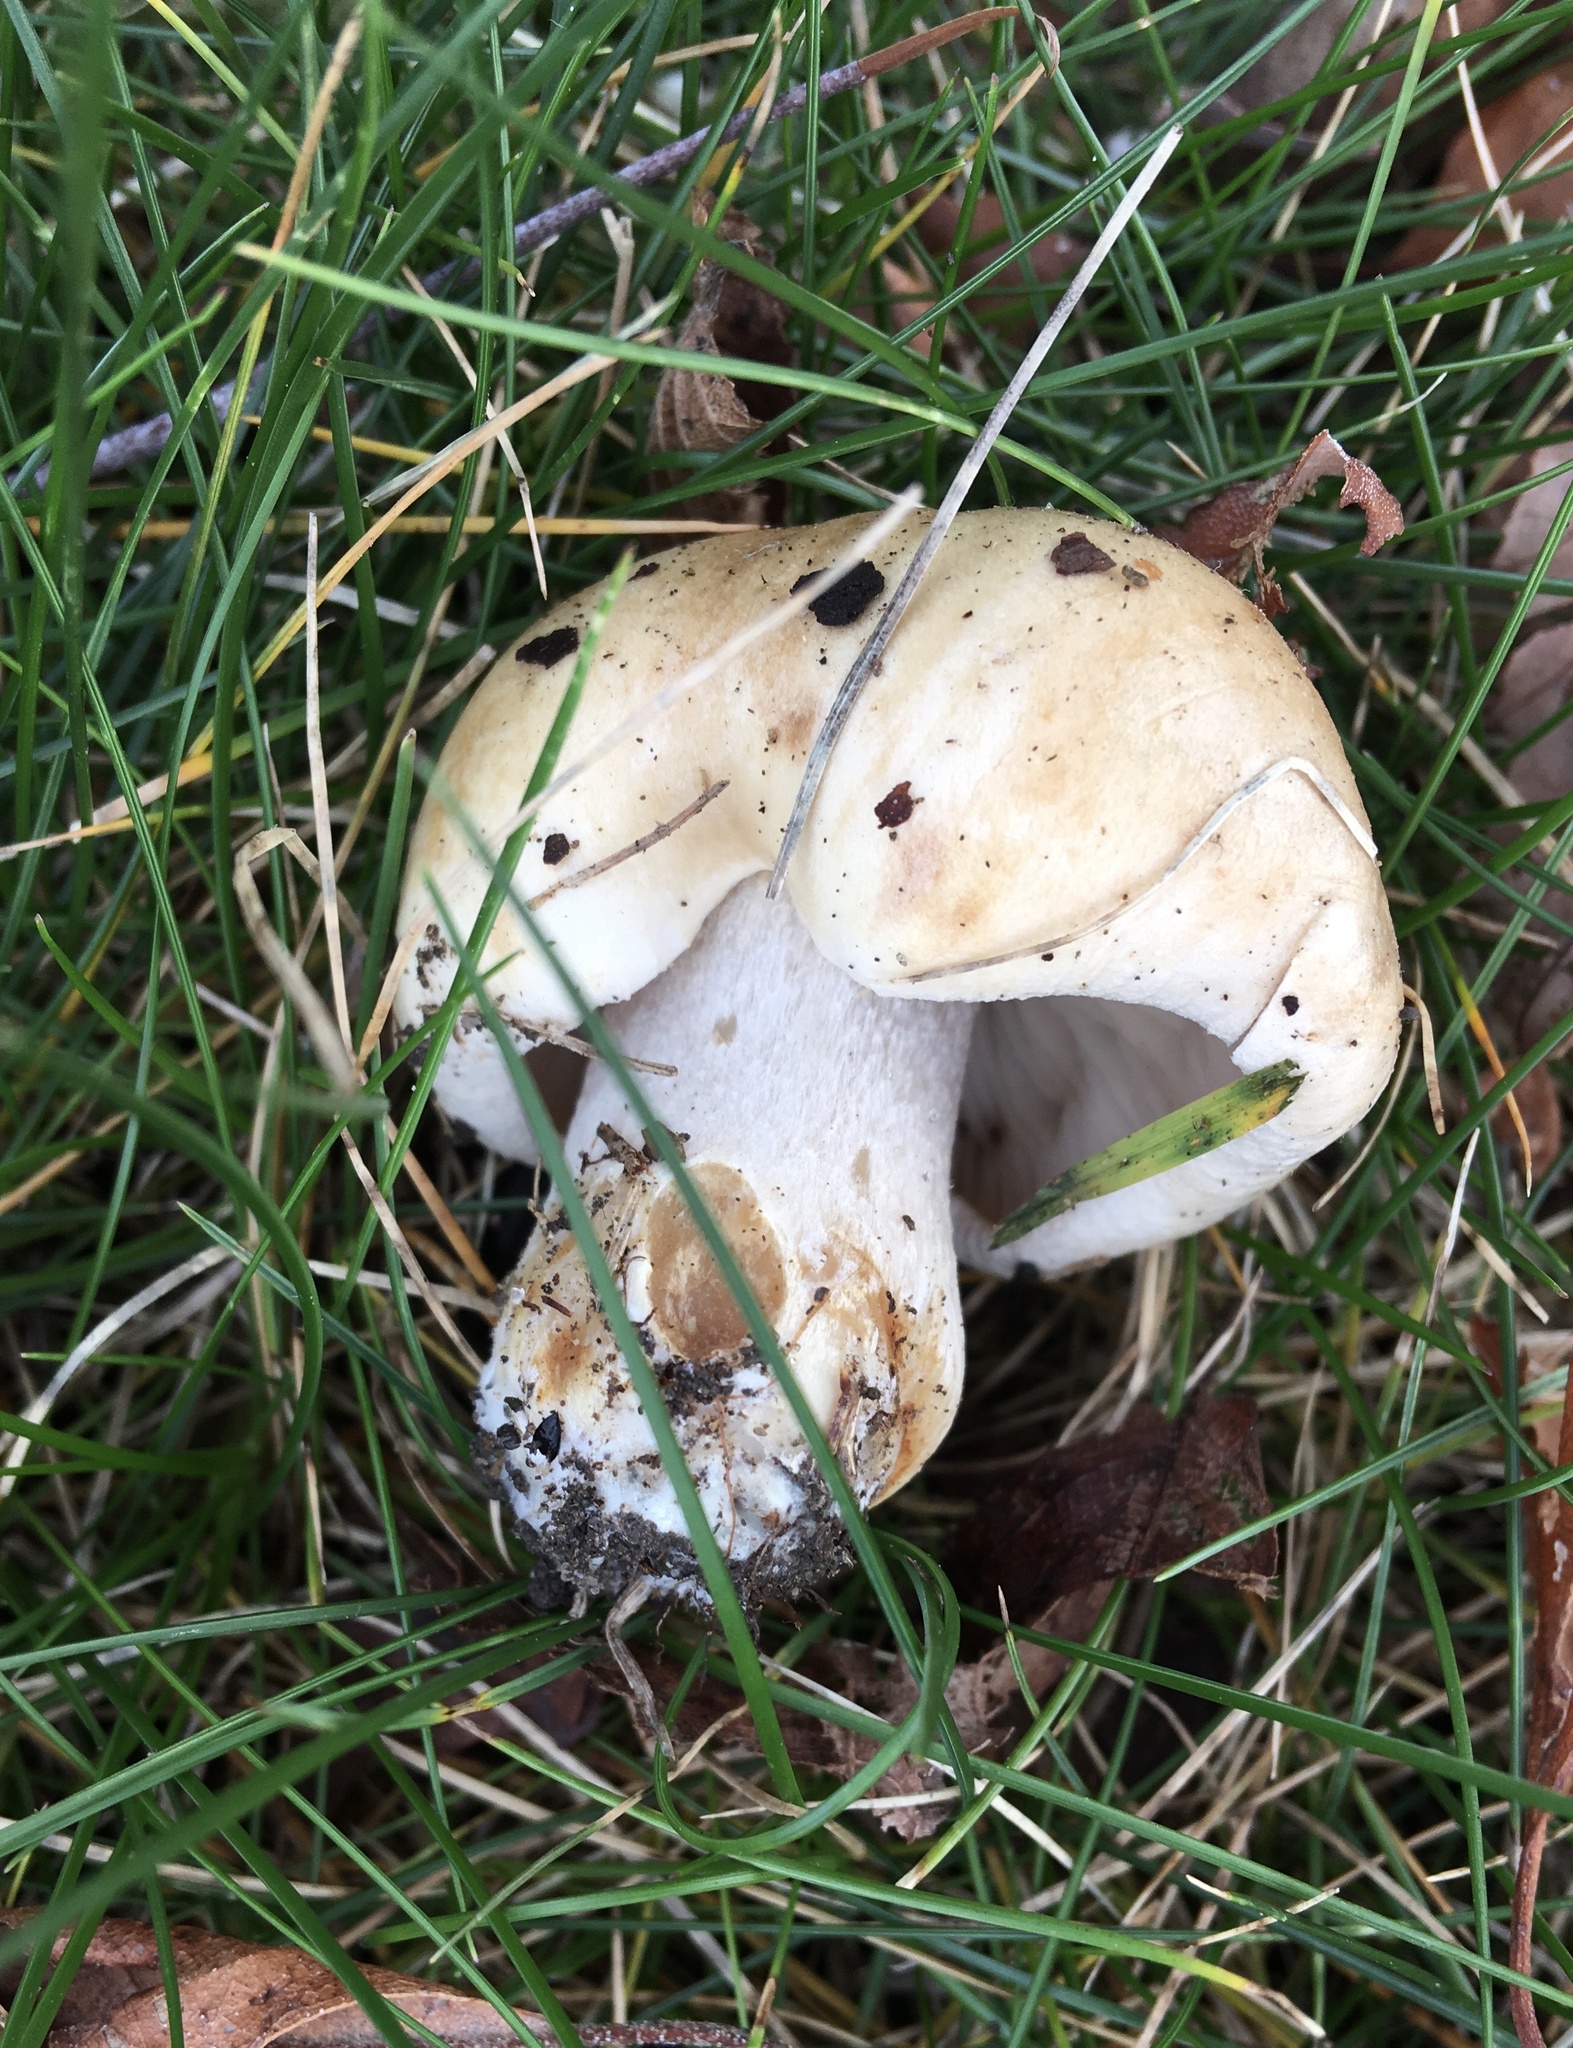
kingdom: Fungi
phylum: Basidiomycota
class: Agaricomycetes
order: Agaricales
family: Hymenogastraceae
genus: Hebeloma
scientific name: Hebeloma crustuliniforme
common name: Poison pie
